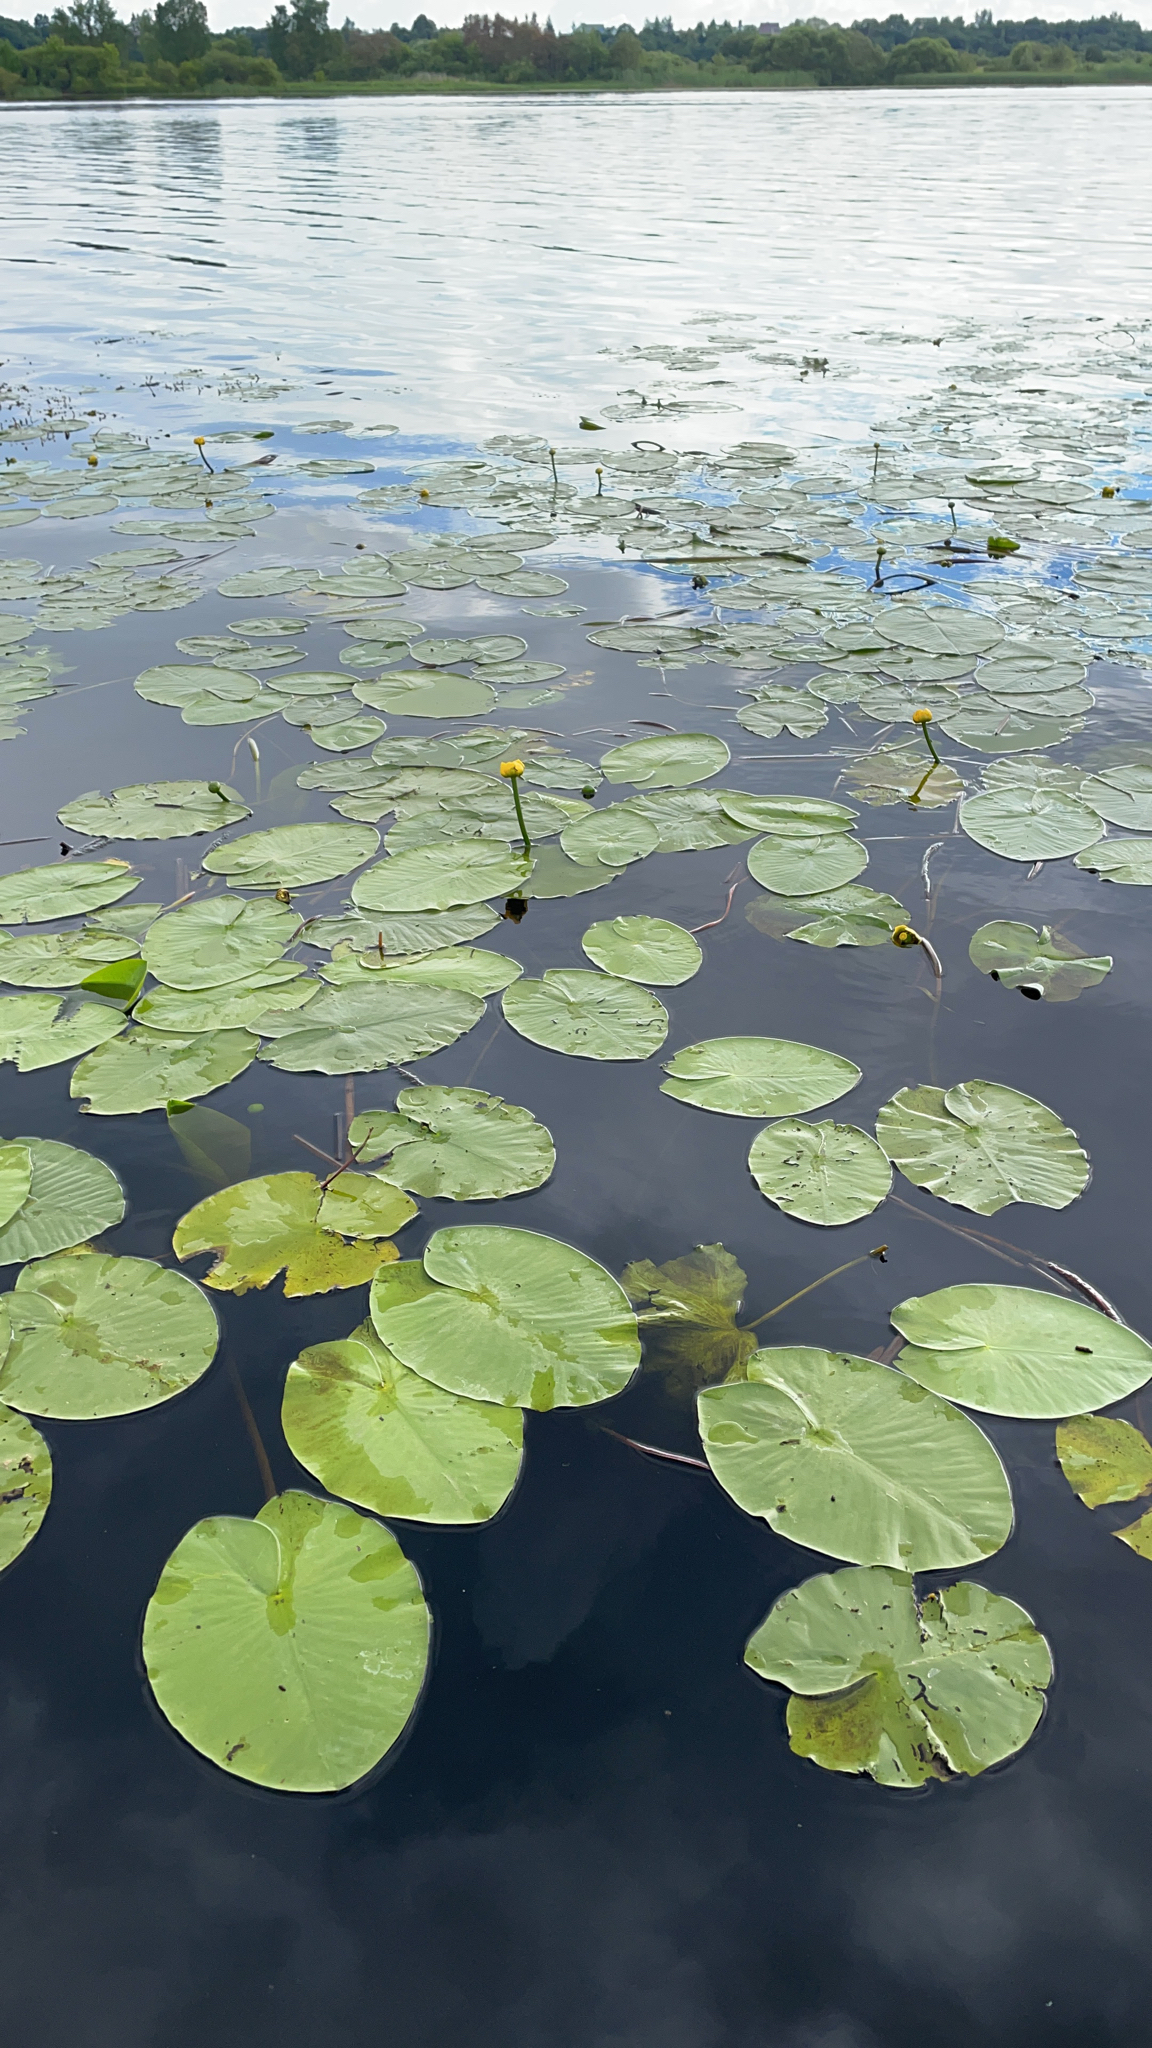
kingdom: Plantae
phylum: Tracheophyta
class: Magnoliopsida
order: Nymphaeales
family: Nymphaeaceae
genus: Nuphar
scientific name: Nuphar lutea
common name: Yellow water-lily
